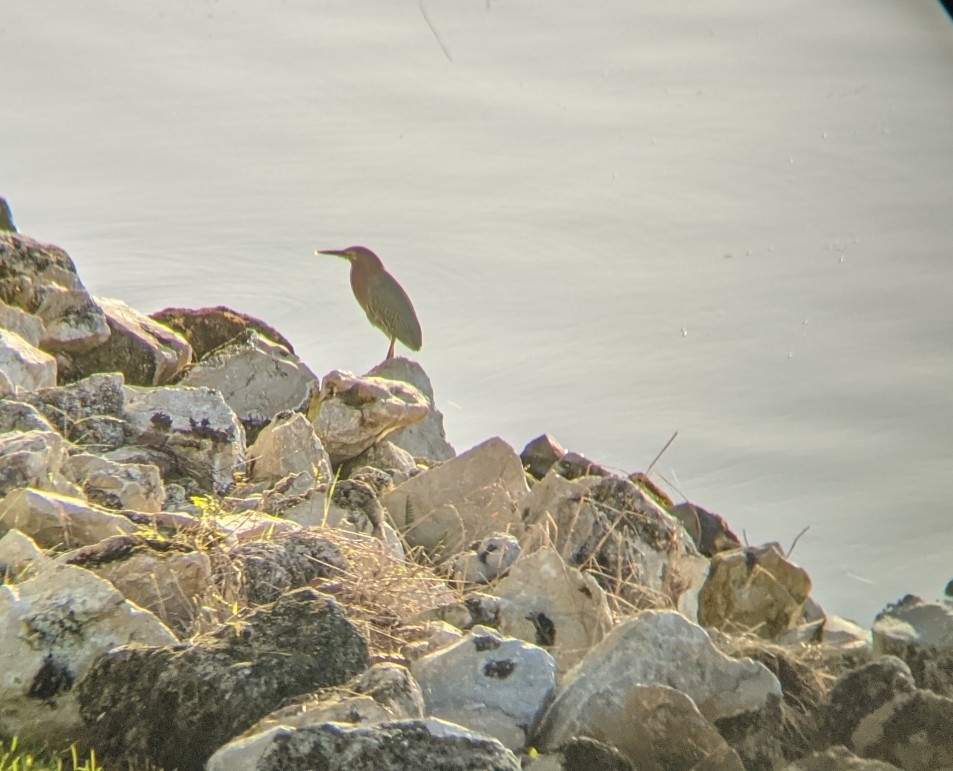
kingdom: Animalia
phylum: Chordata
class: Aves
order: Pelecaniformes
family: Ardeidae
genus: Butorides
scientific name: Butorides virescens
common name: Green heron
